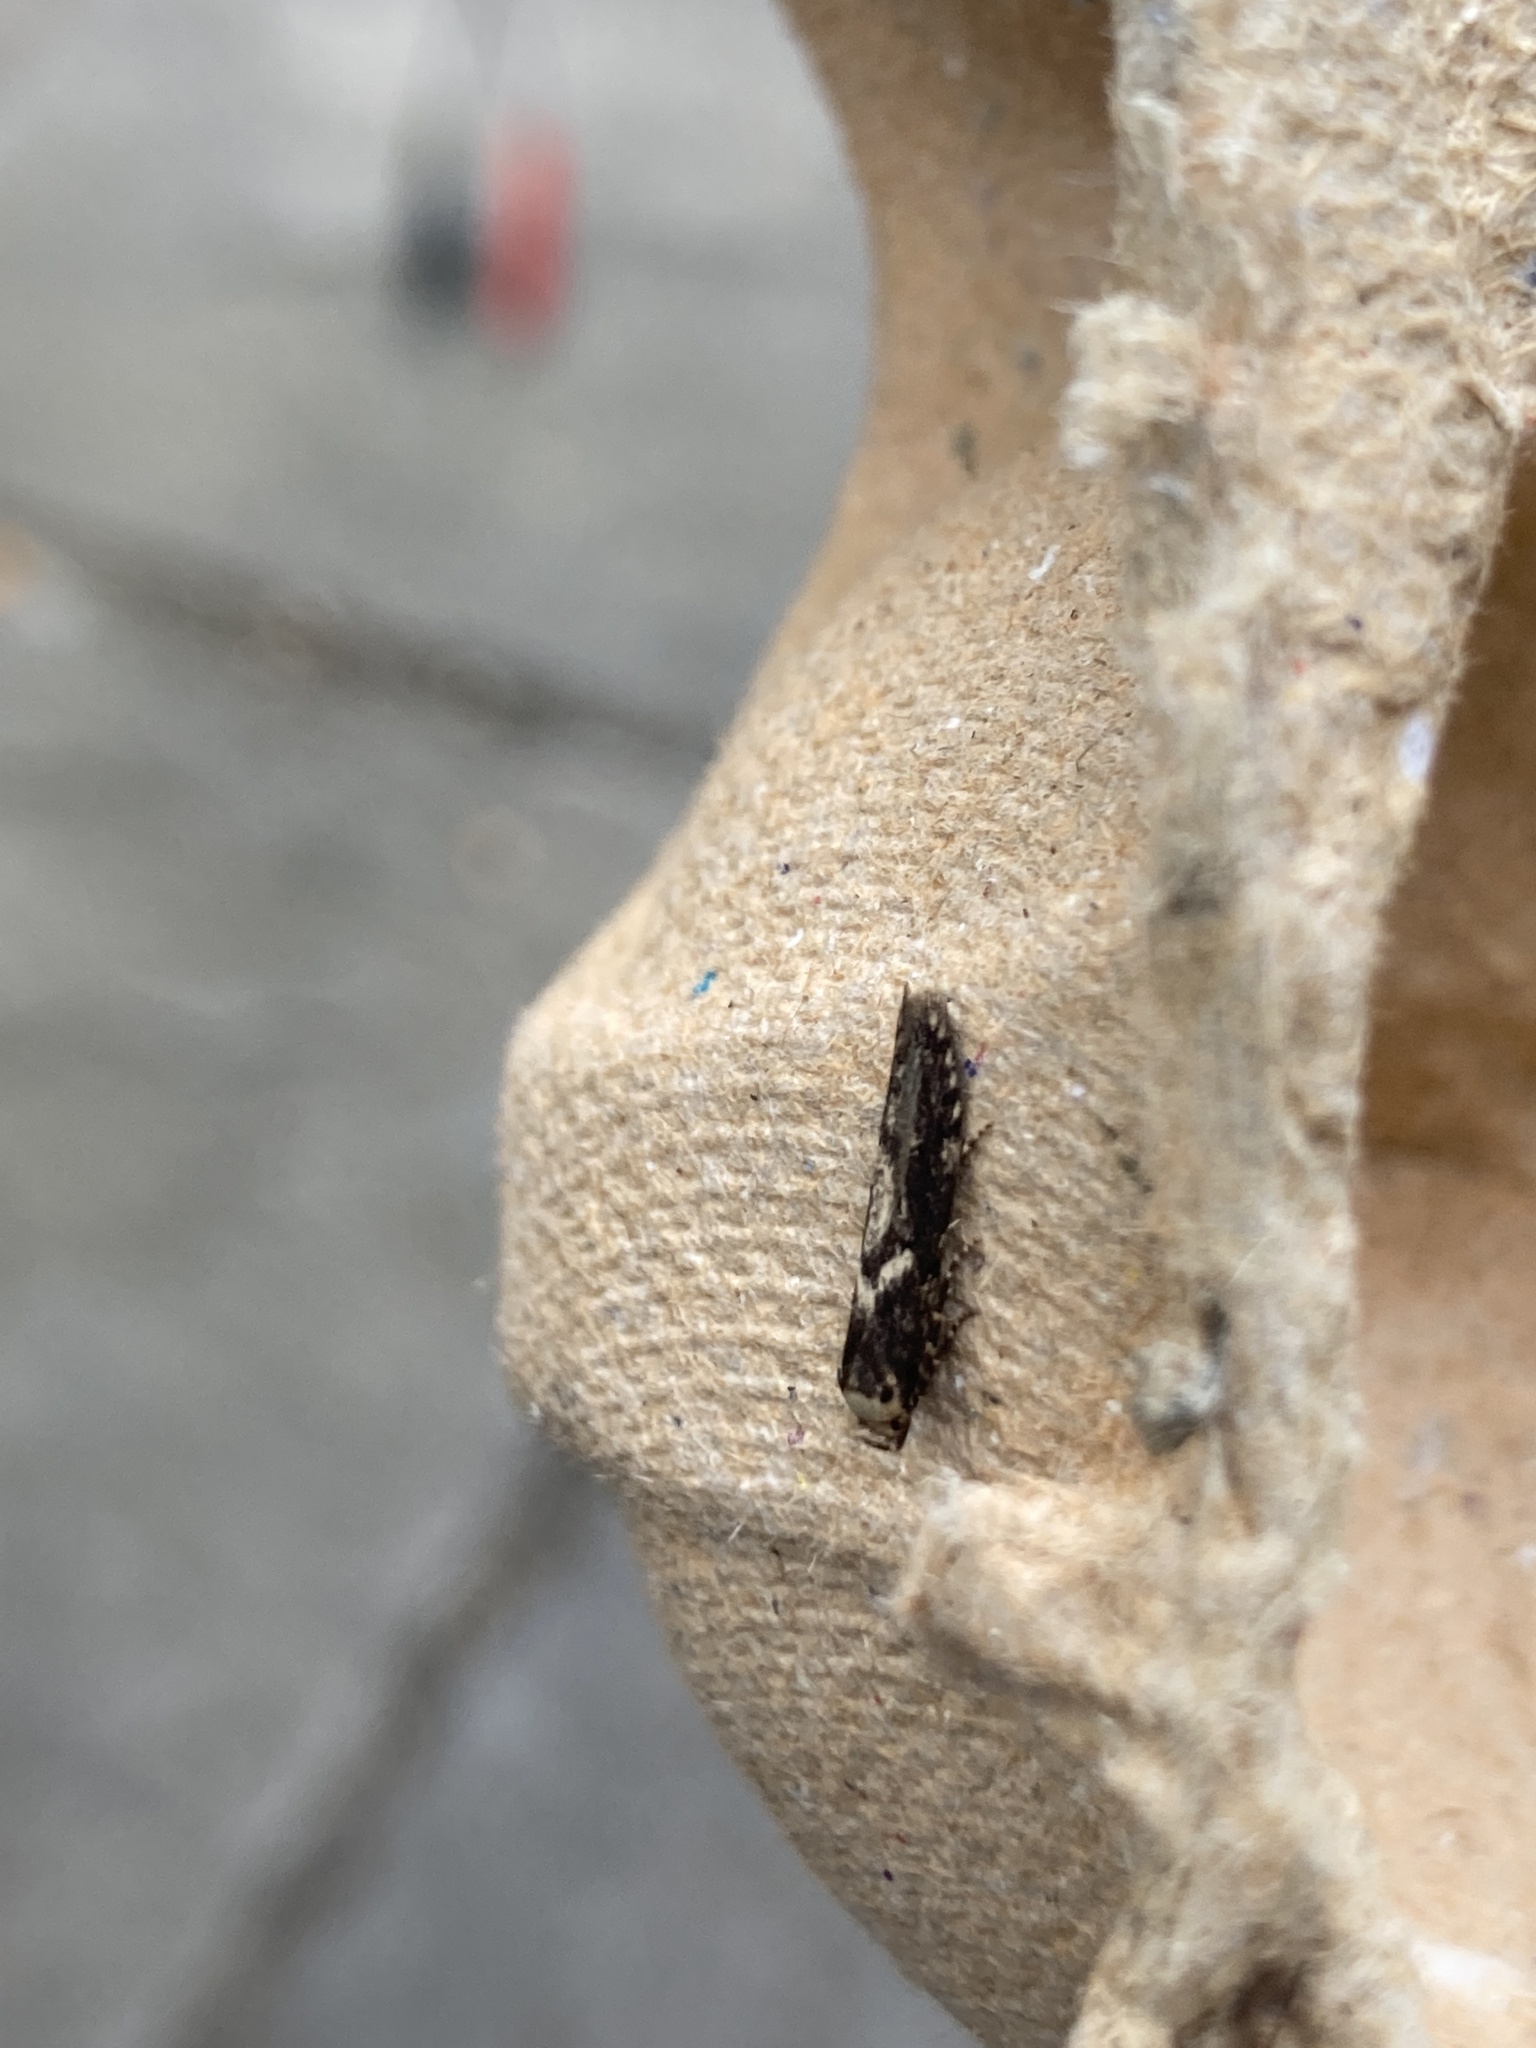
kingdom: Animalia
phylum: Arthropoda
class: Insecta
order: Lepidoptera
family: Blastobasidae
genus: Blastobasis
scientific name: Blastobasis adustella
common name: Dingy dowd
